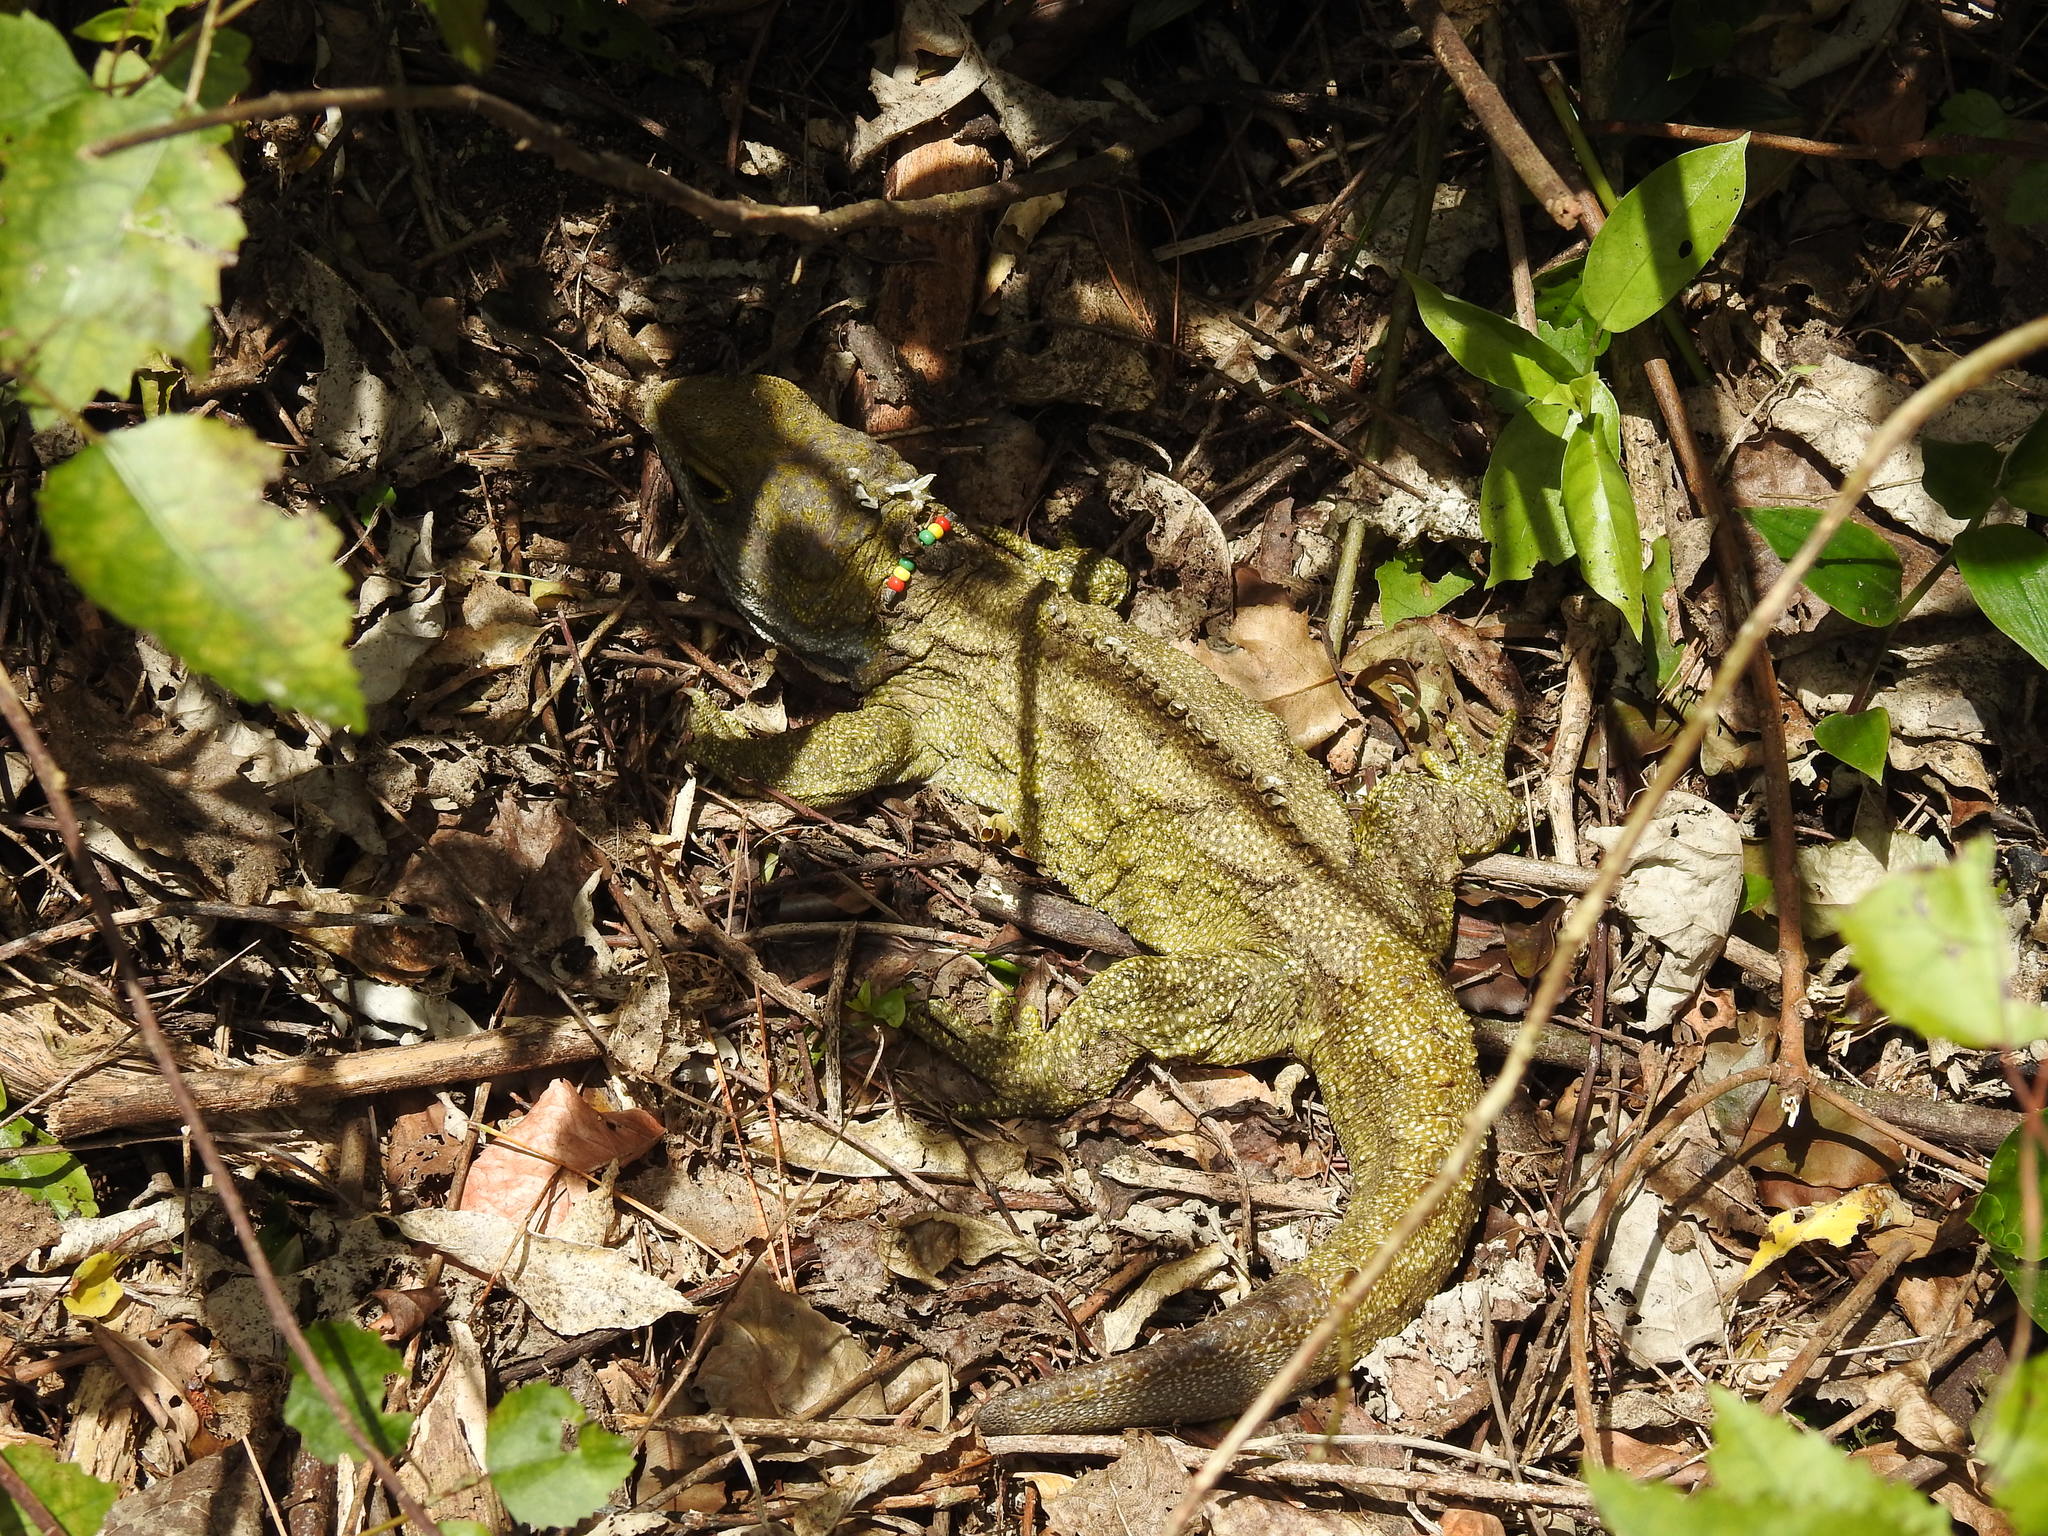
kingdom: Animalia
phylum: Chordata
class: Sphenodontia
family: Sphenodontidae
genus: Sphenodon
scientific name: Sphenodon punctatus
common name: Tuatara
